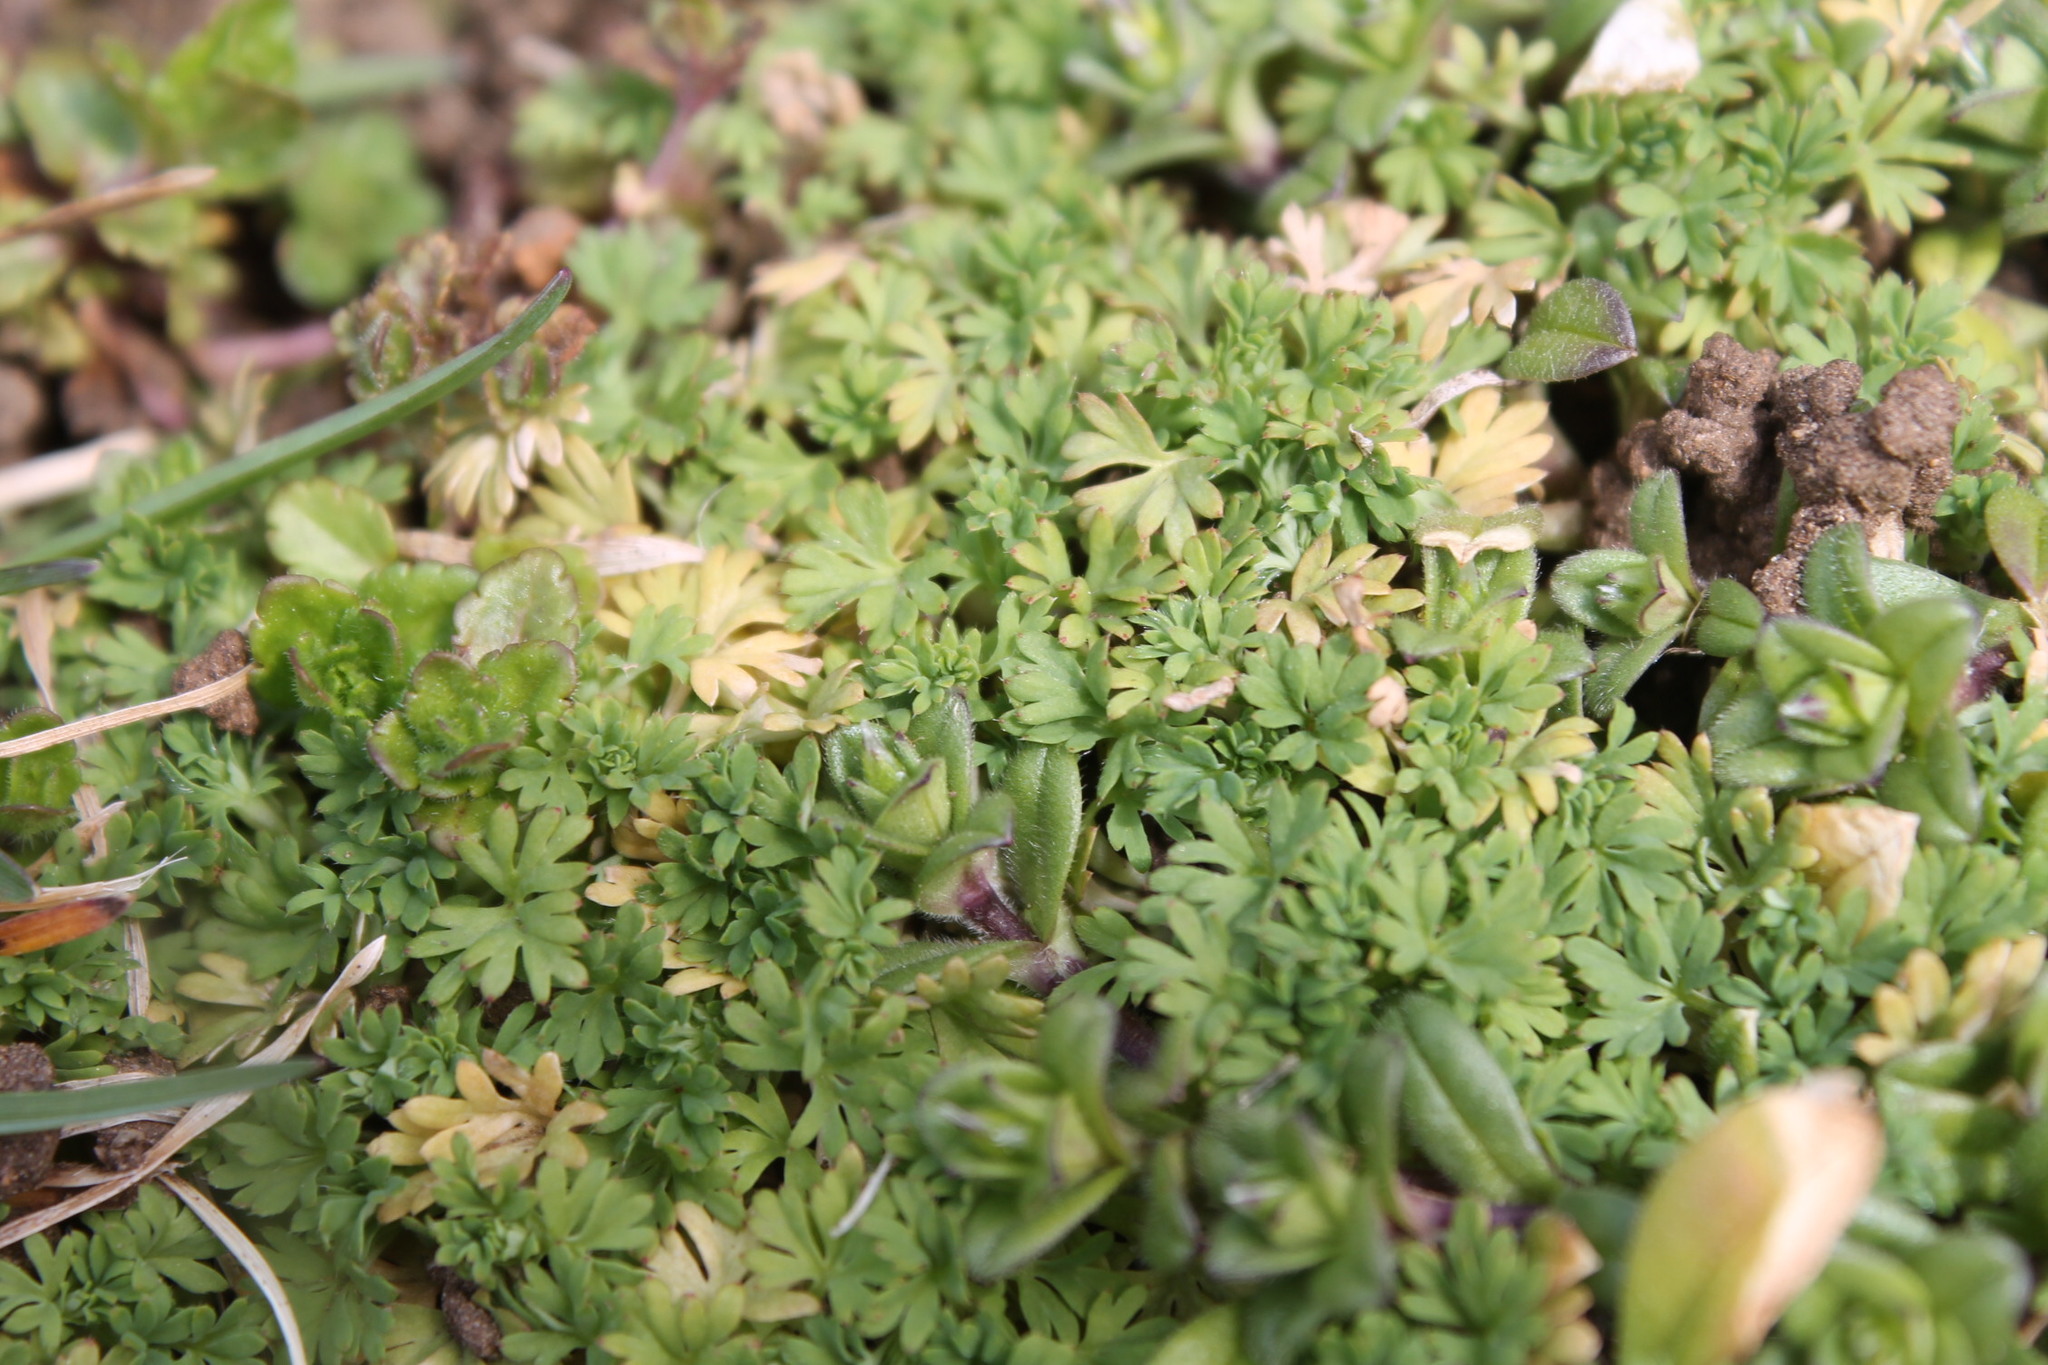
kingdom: Plantae
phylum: Tracheophyta
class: Magnoliopsida
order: Rosales
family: Rosaceae
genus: Aphanes
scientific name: Aphanes australis
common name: Slender parsley-piert
